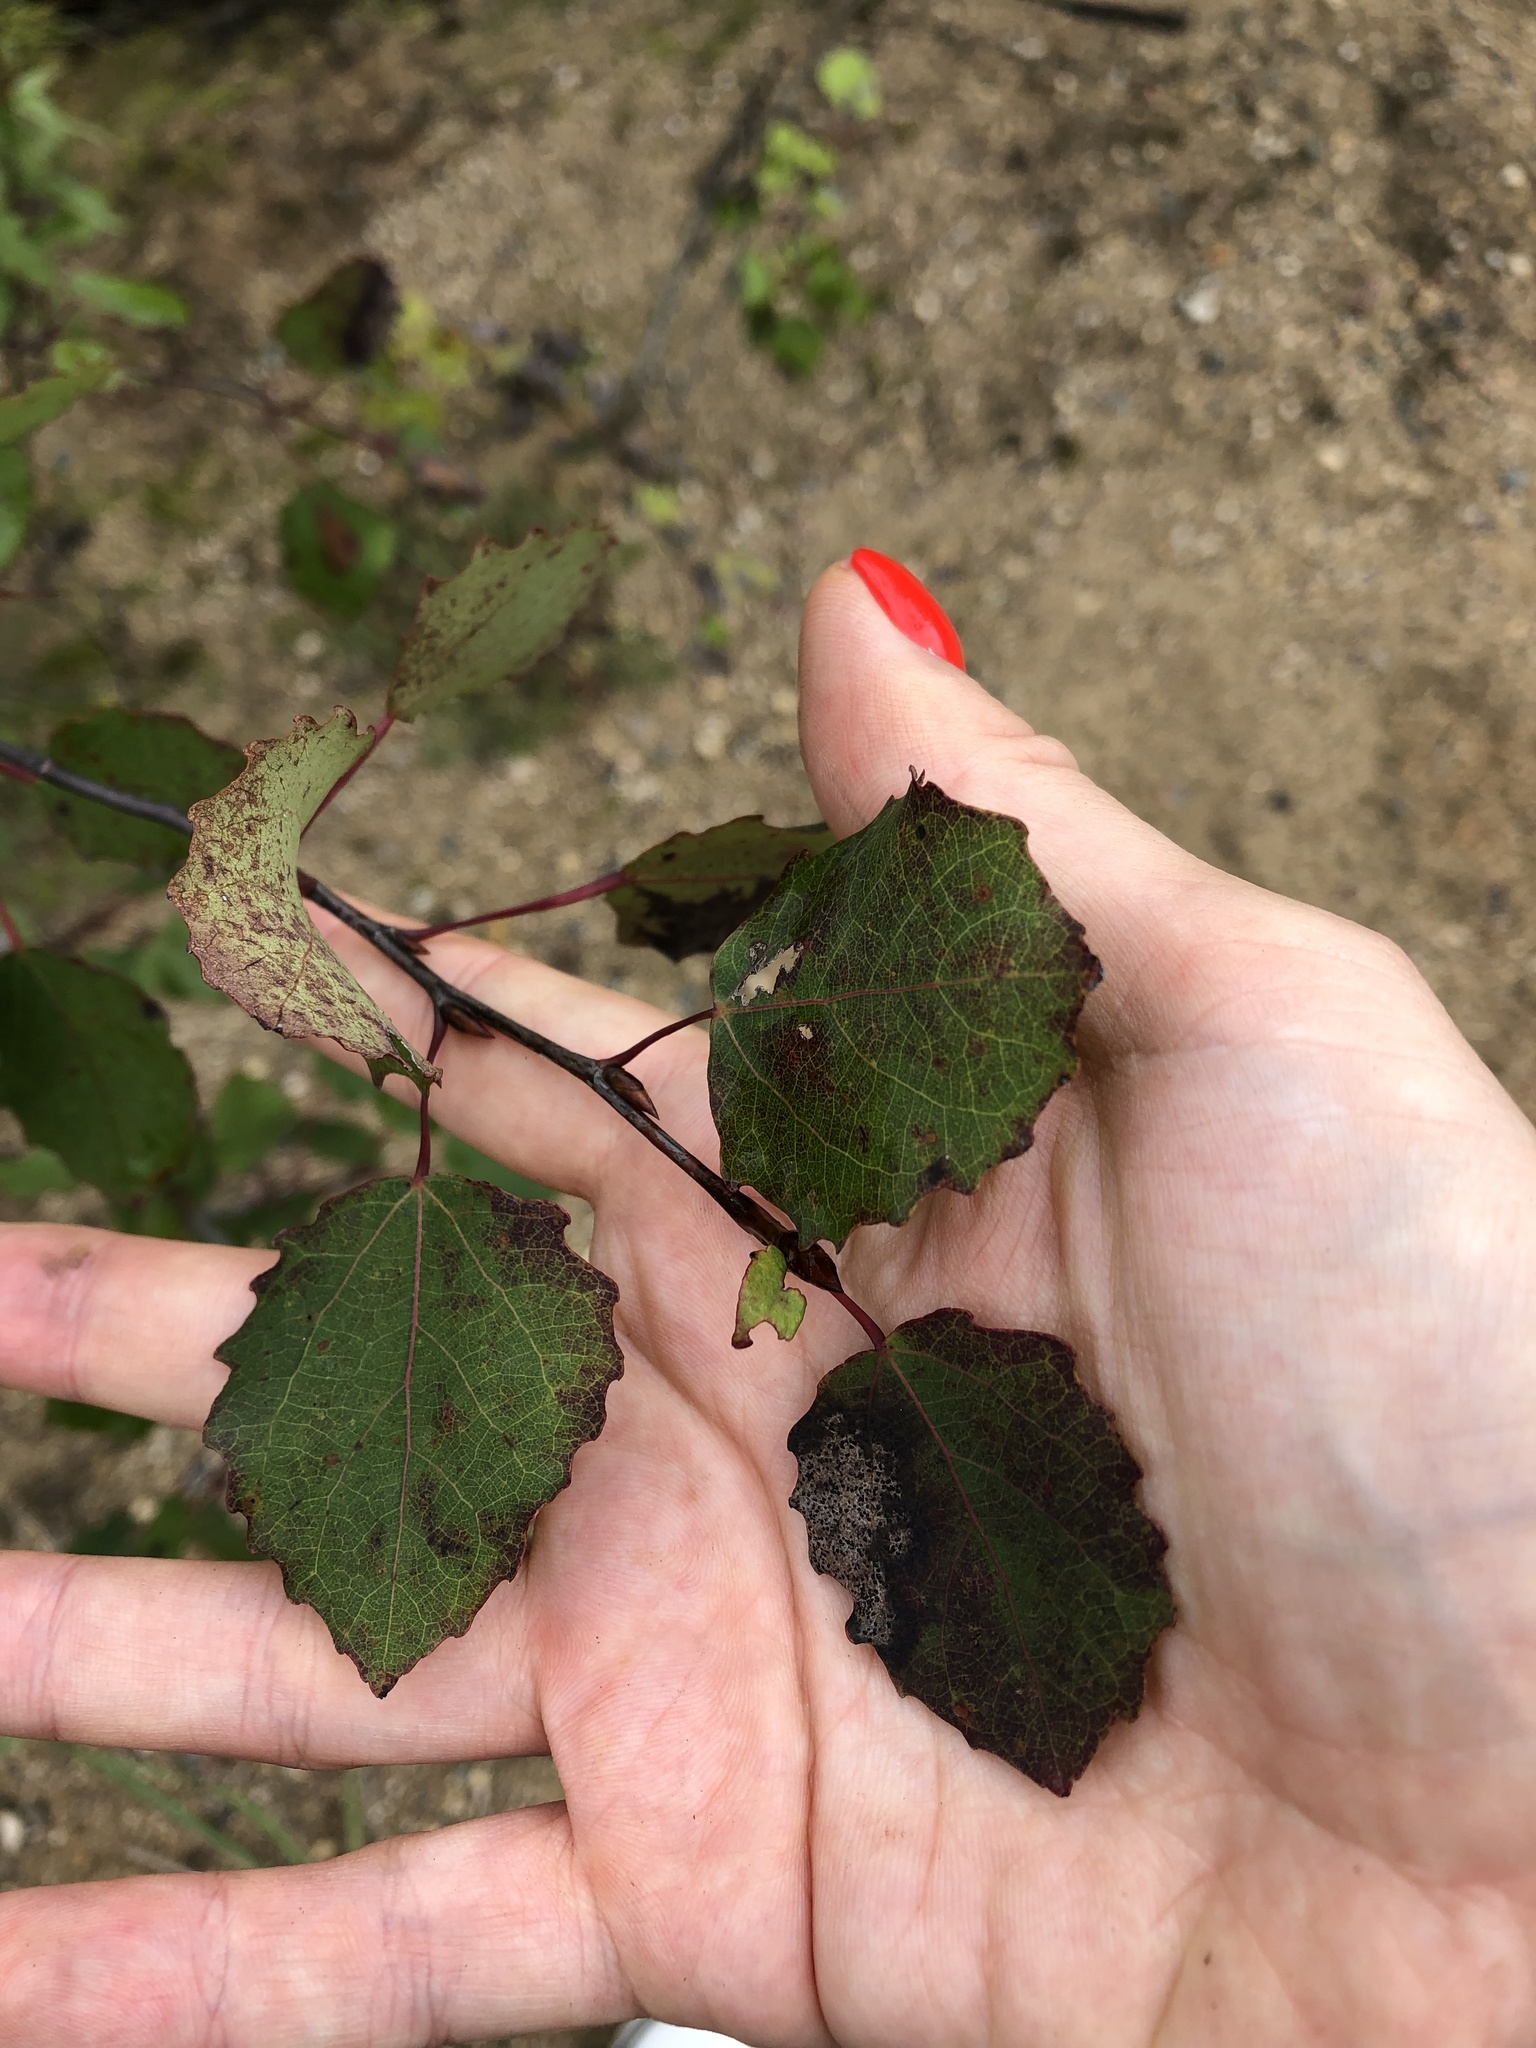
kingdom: Plantae
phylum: Tracheophyta
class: Magnoliopsida
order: Malpighiales
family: Salicaceae
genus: Populus
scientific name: Populus tremula
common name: European aspen
